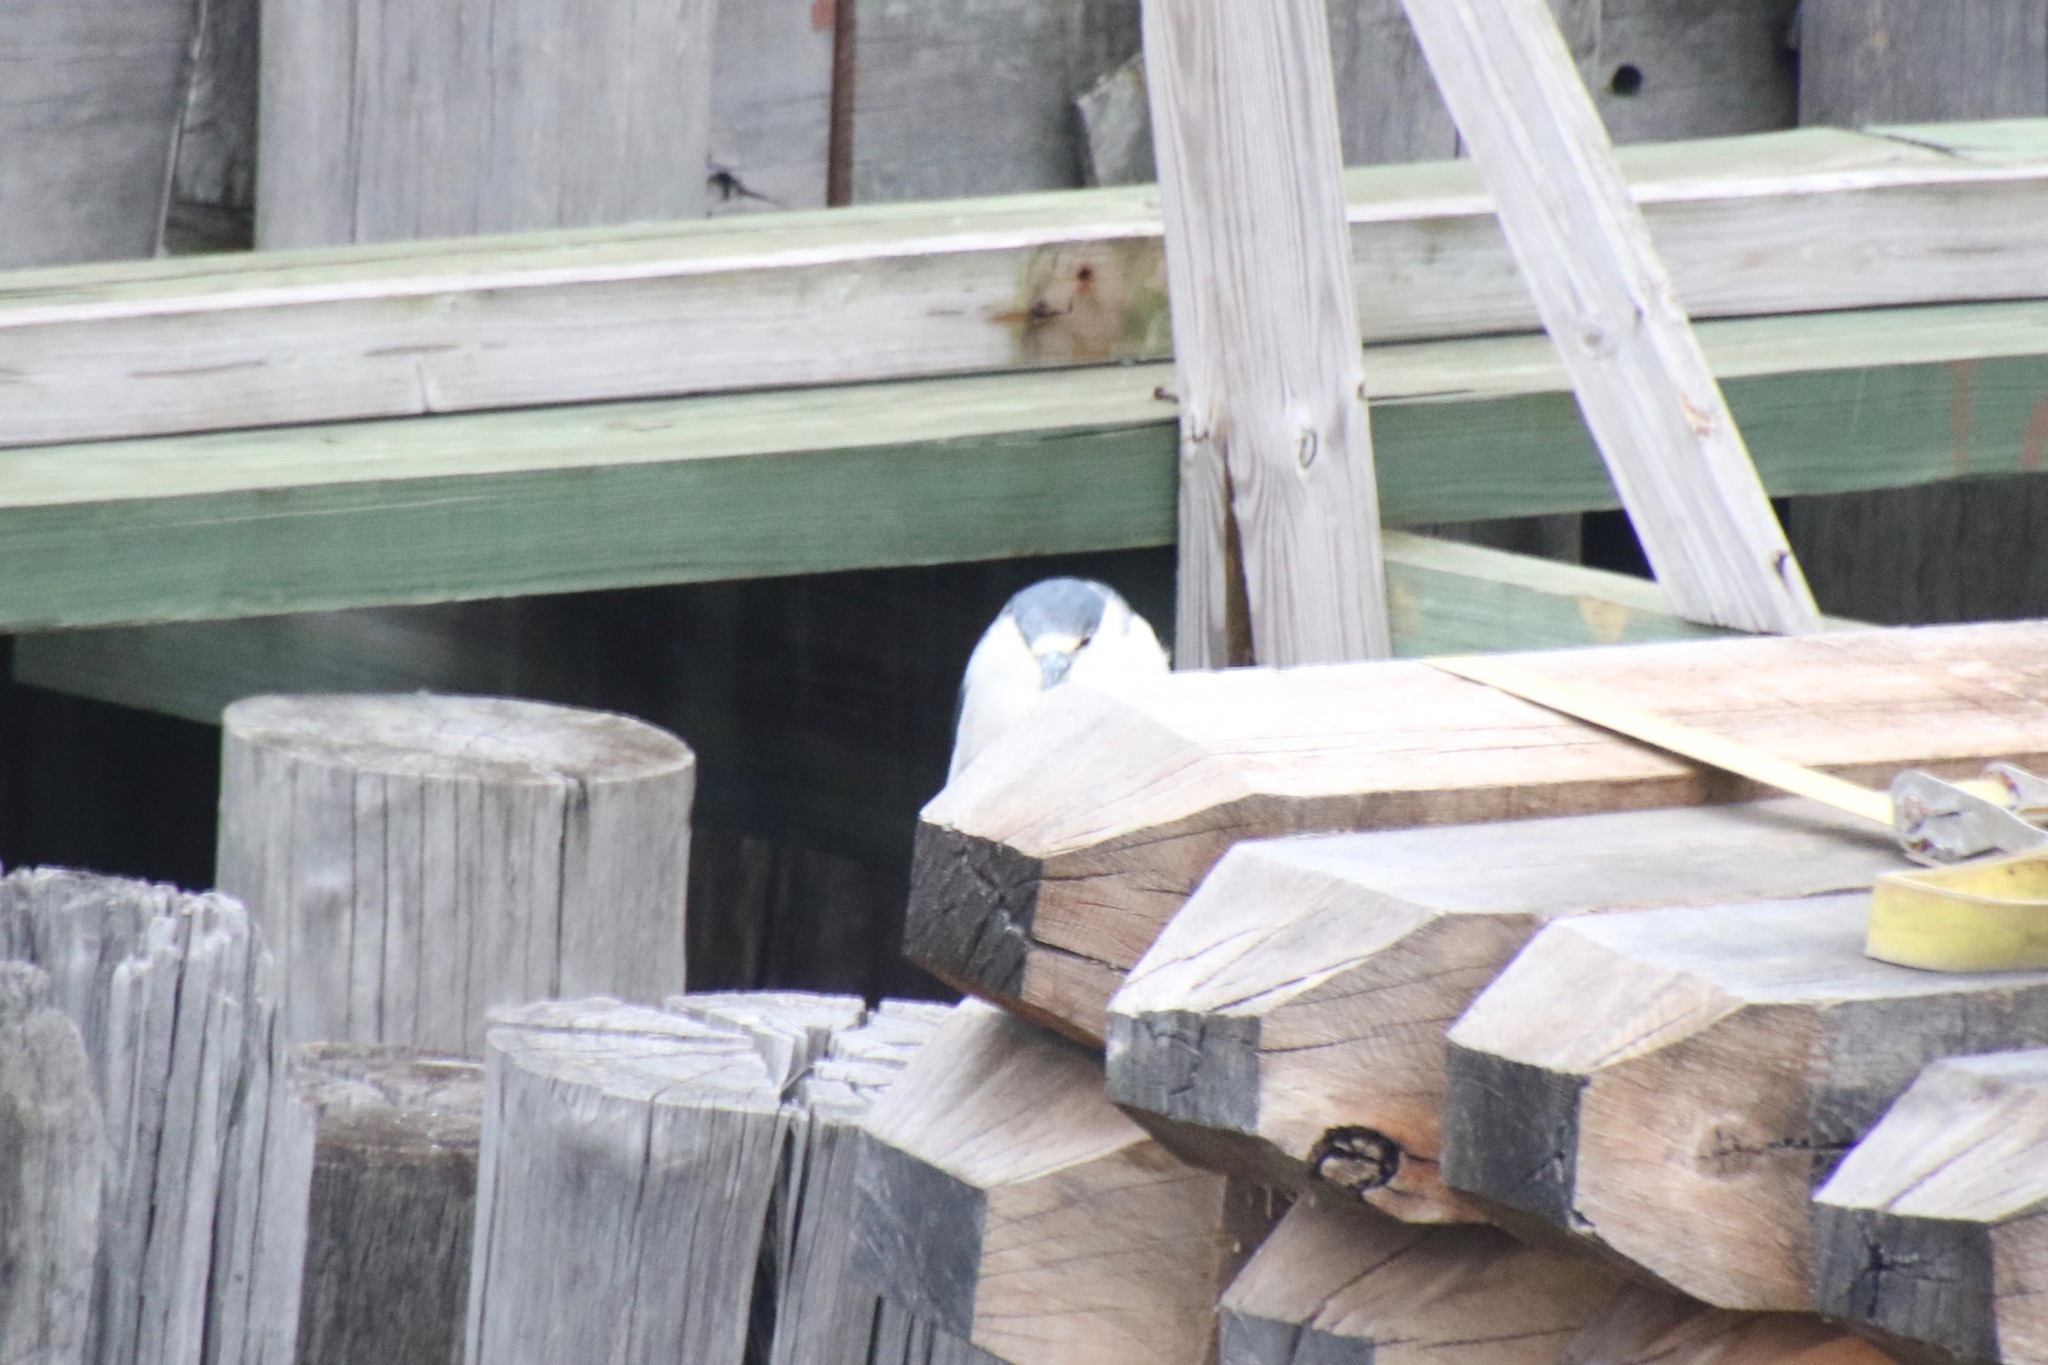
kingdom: Animalia
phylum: Chordata
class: Aves
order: Pelecaniformes
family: Ardeidae
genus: Nycticorax
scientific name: Nycticorax nycticorax
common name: Black-crowned night heron
